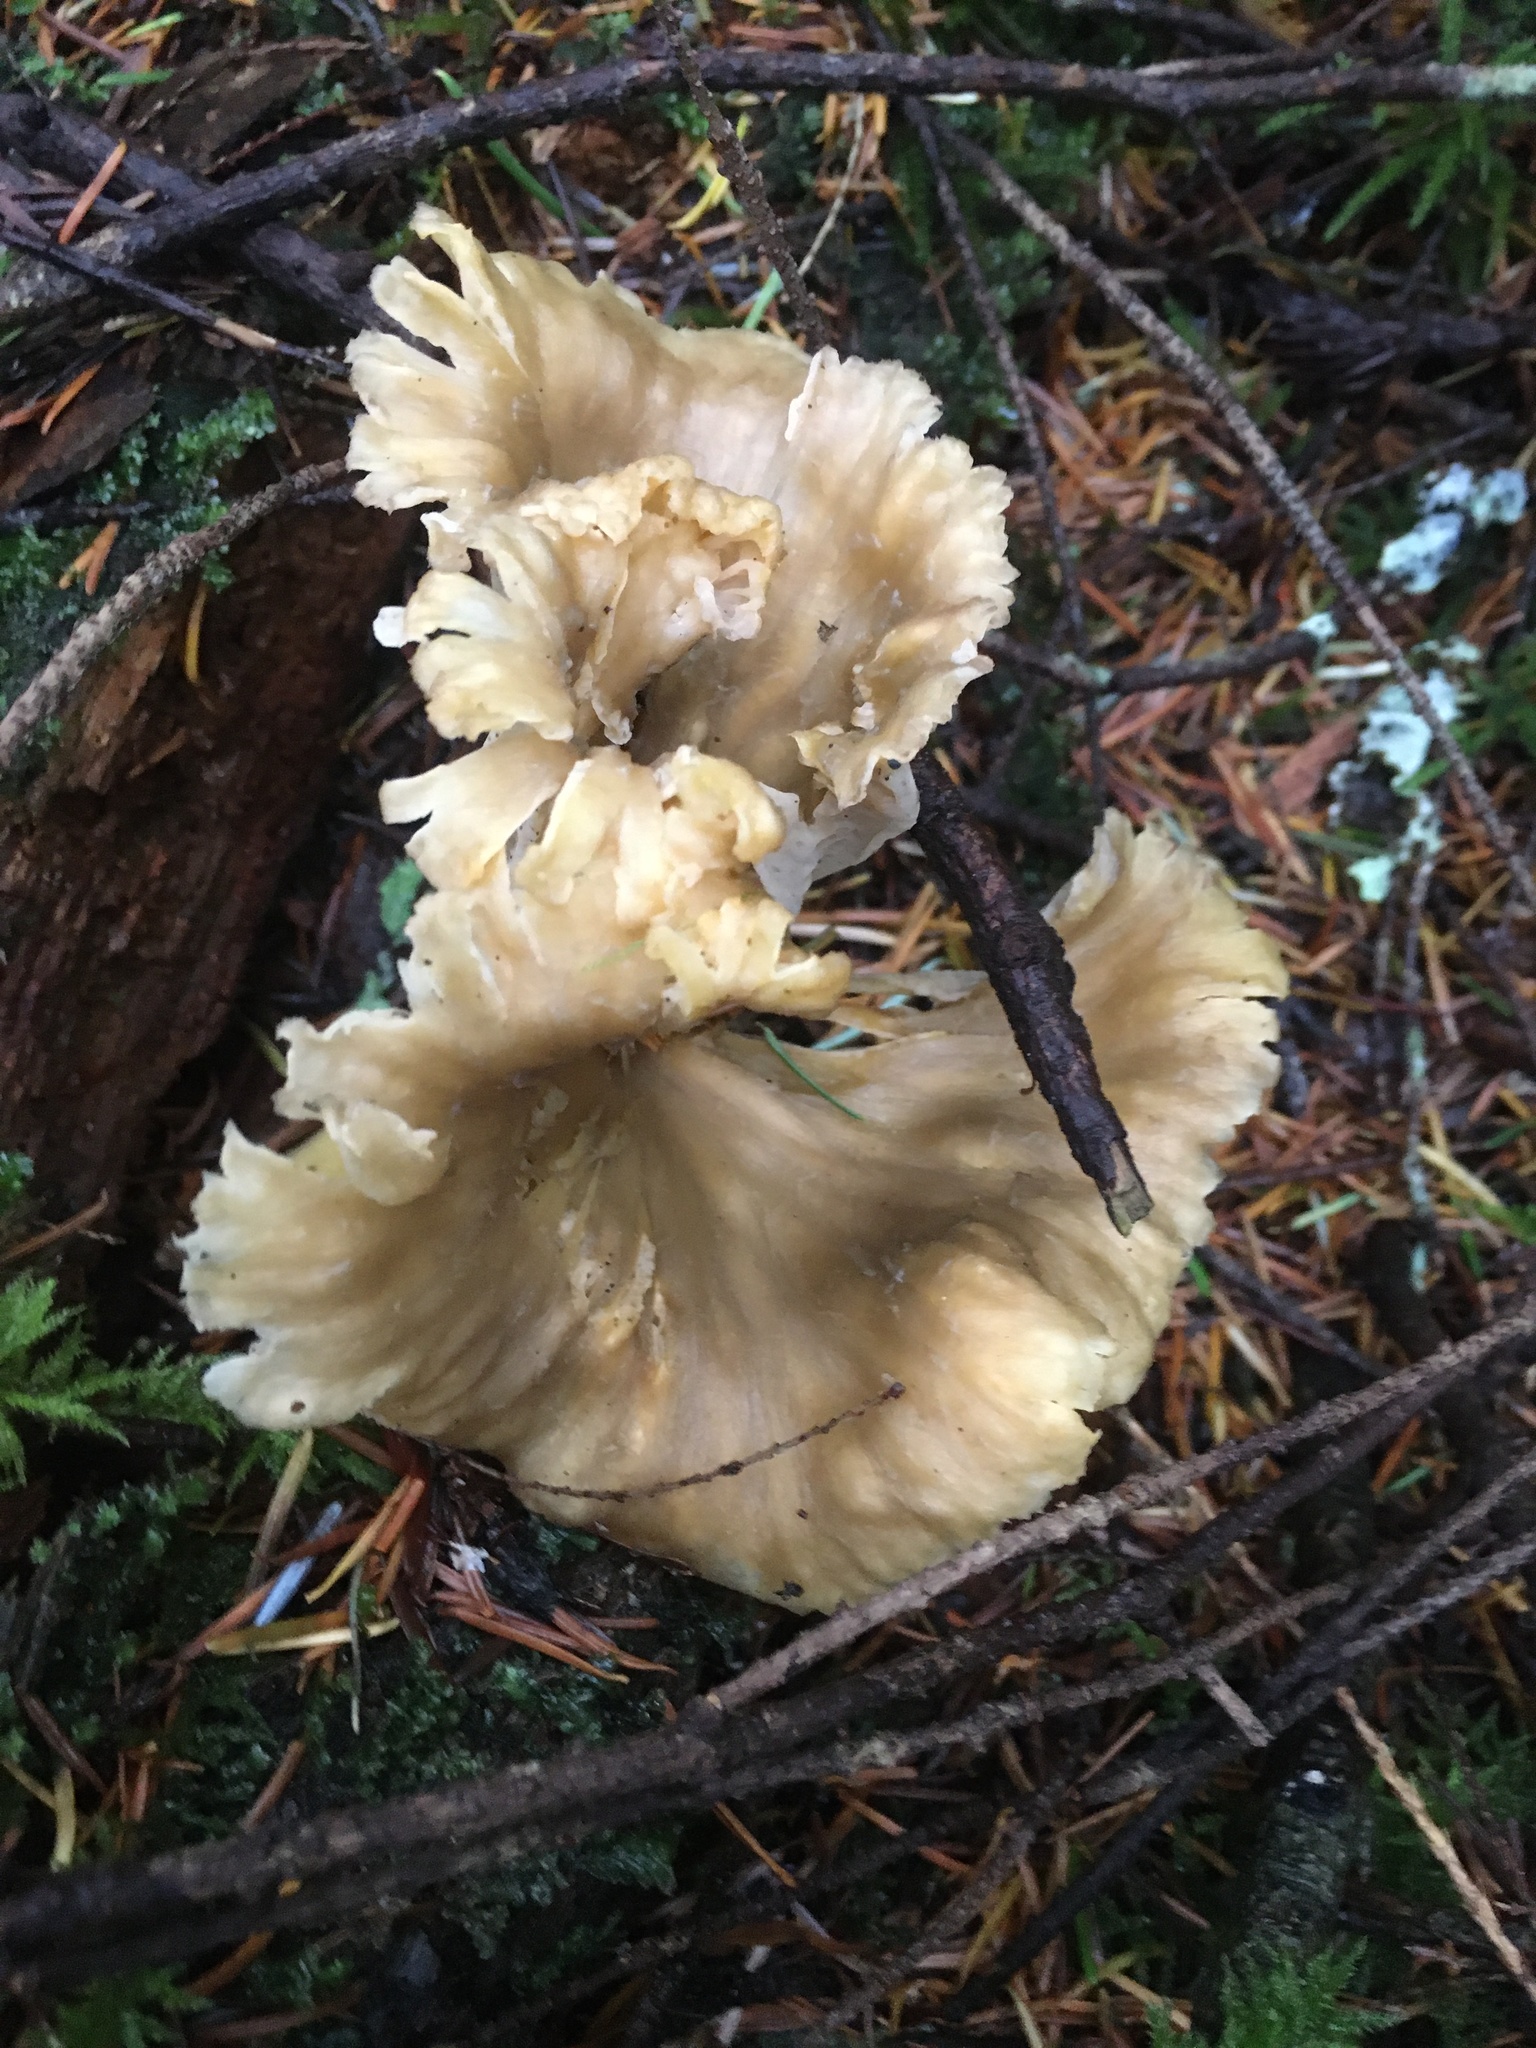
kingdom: Fungi
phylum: Basidiomycota
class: Agaricomycetes
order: Cantharellales
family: Hydnaceae
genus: Craterellus
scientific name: Craterellus tubaeformis
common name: Yellowfoot
